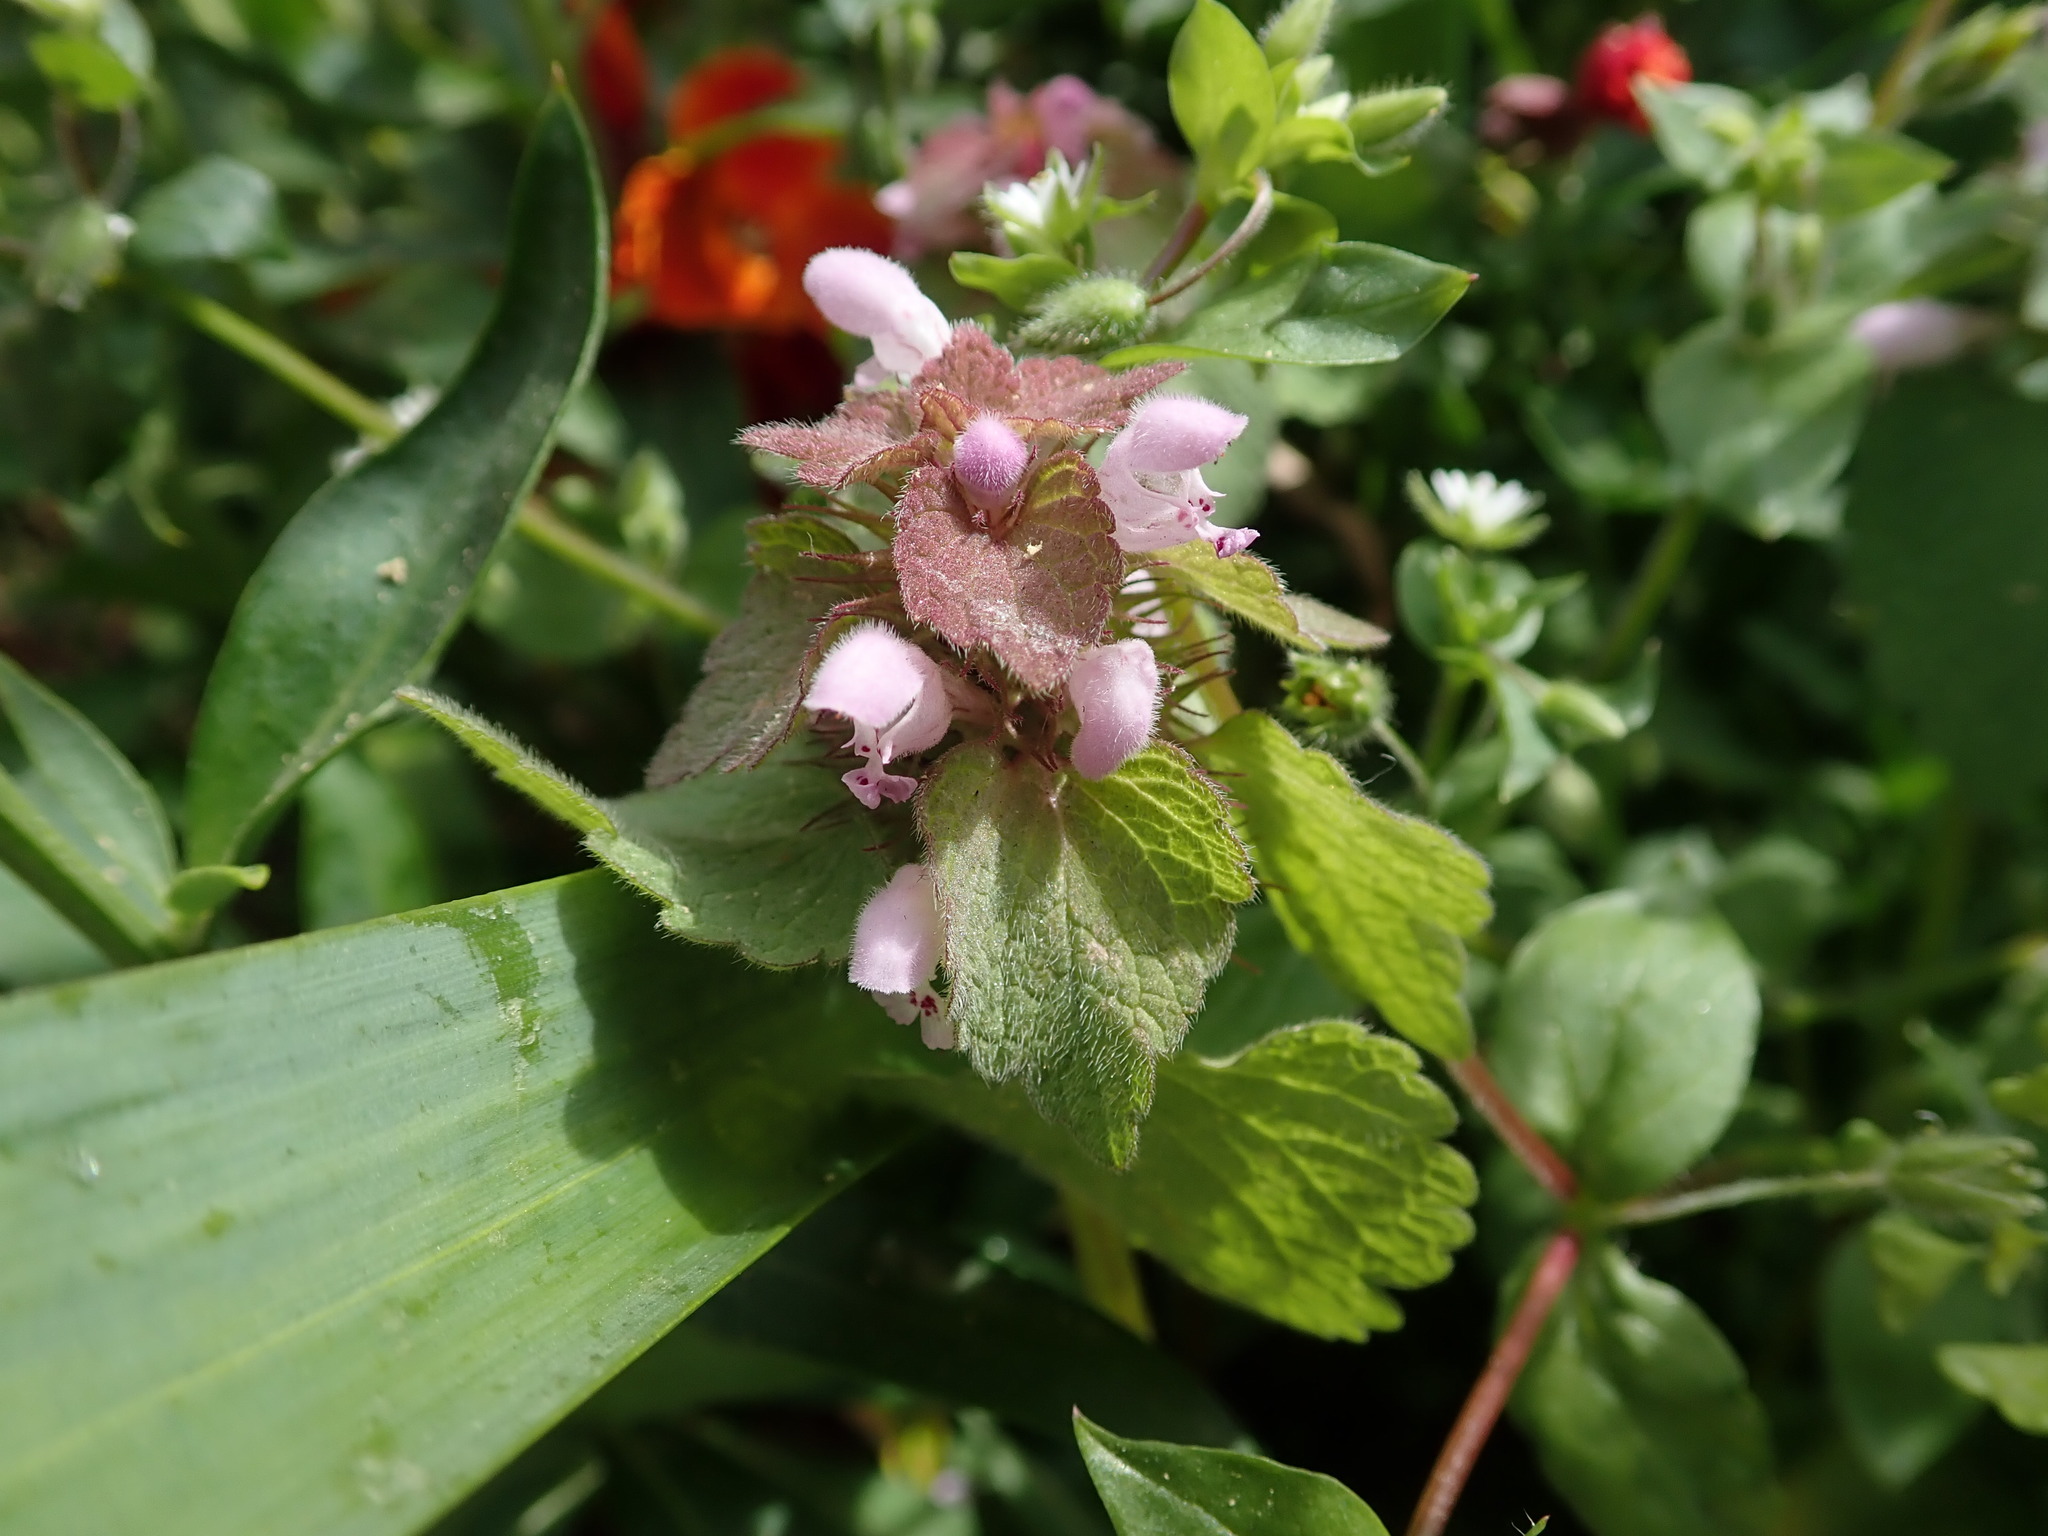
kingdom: Plantae
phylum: Tracheophyta
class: Magnoliopsida
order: Lamiales
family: Lamiaceae
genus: Lamium
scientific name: Lamium purpureum
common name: Red dead-nettle
